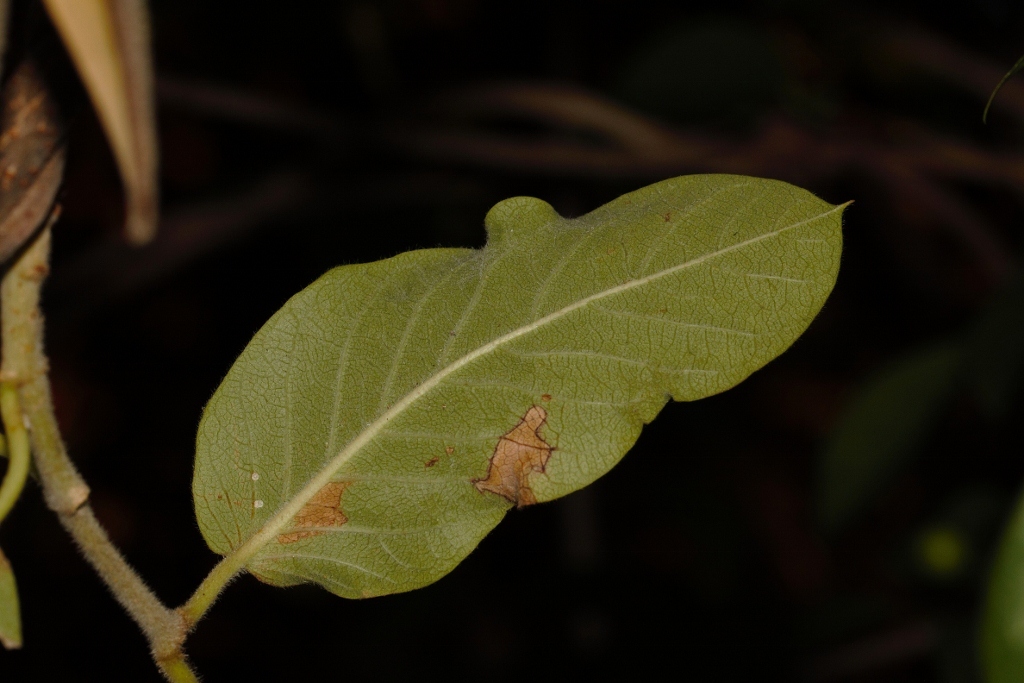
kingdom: Plantae
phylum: Tracheophyta
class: Magnoliopsida
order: Gentianales
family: Apocynaceae
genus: Tacazzea
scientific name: Tacazzea apiculata
